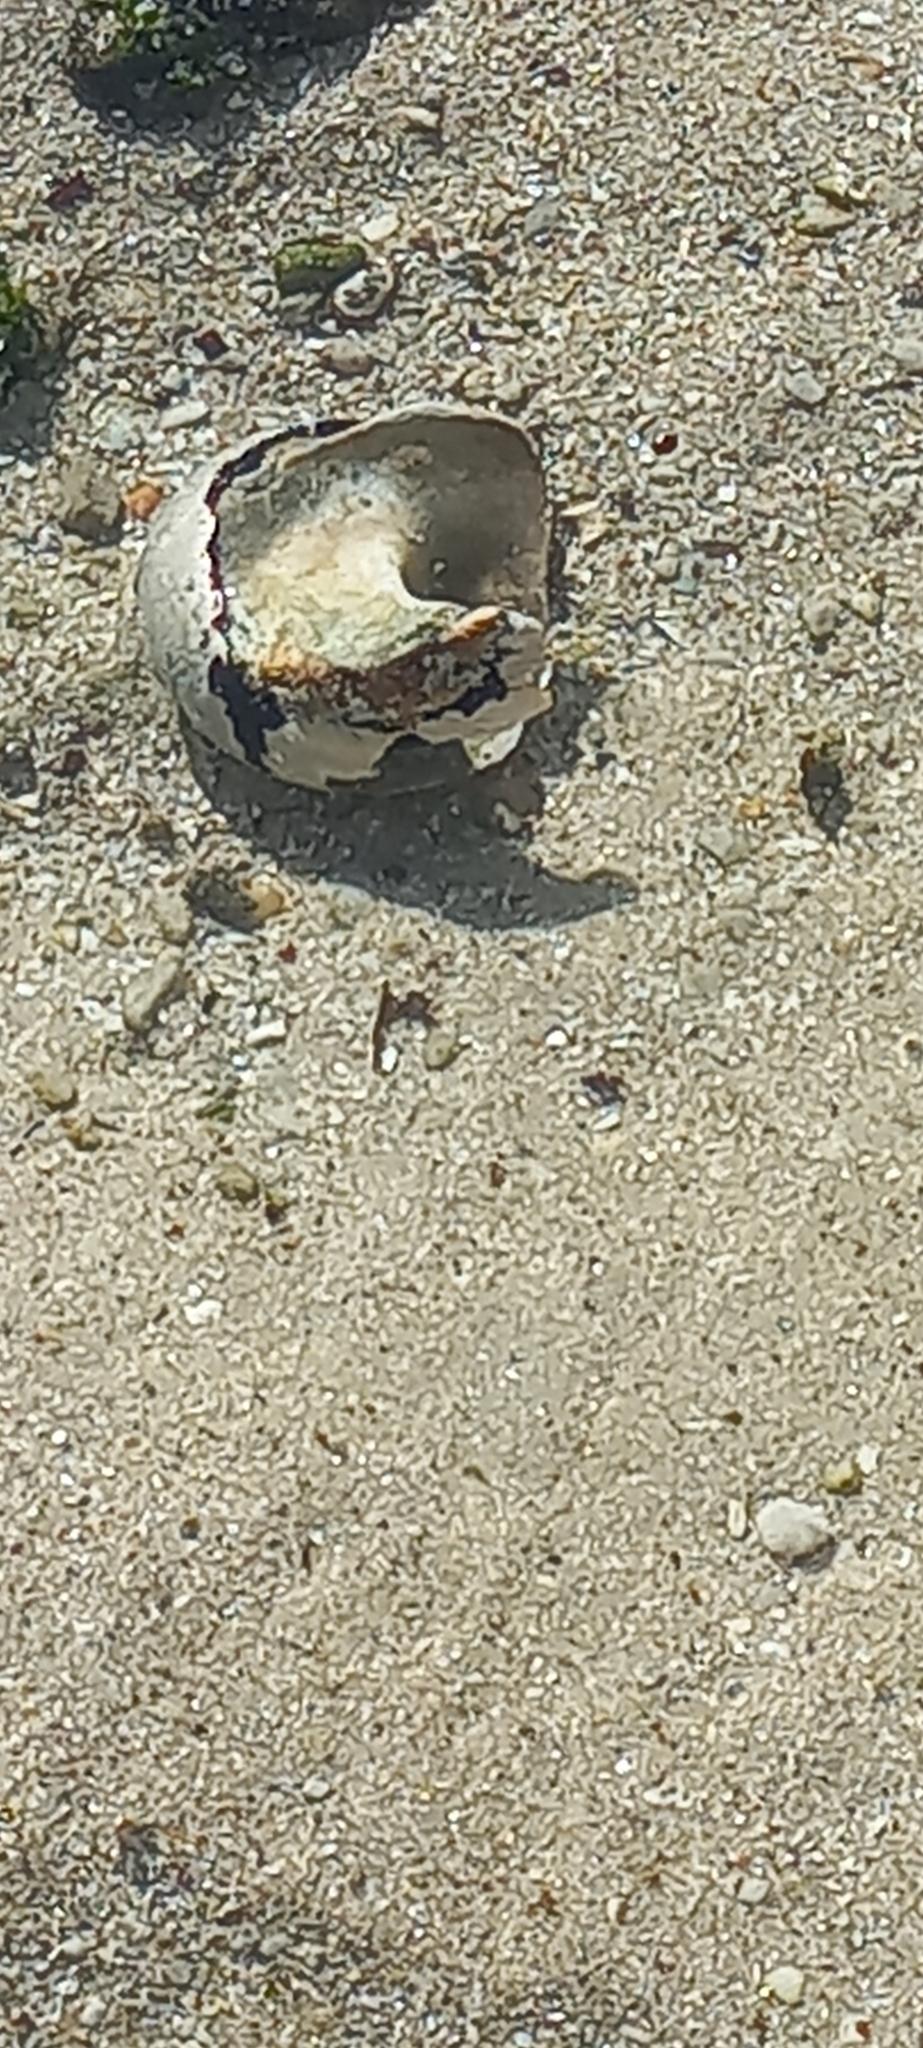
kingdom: Animalia
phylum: Mollusca
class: Gastropoda
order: Trochida
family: Turbinidae
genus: Turbo
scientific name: Turbo sarmaticus
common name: South african turban
